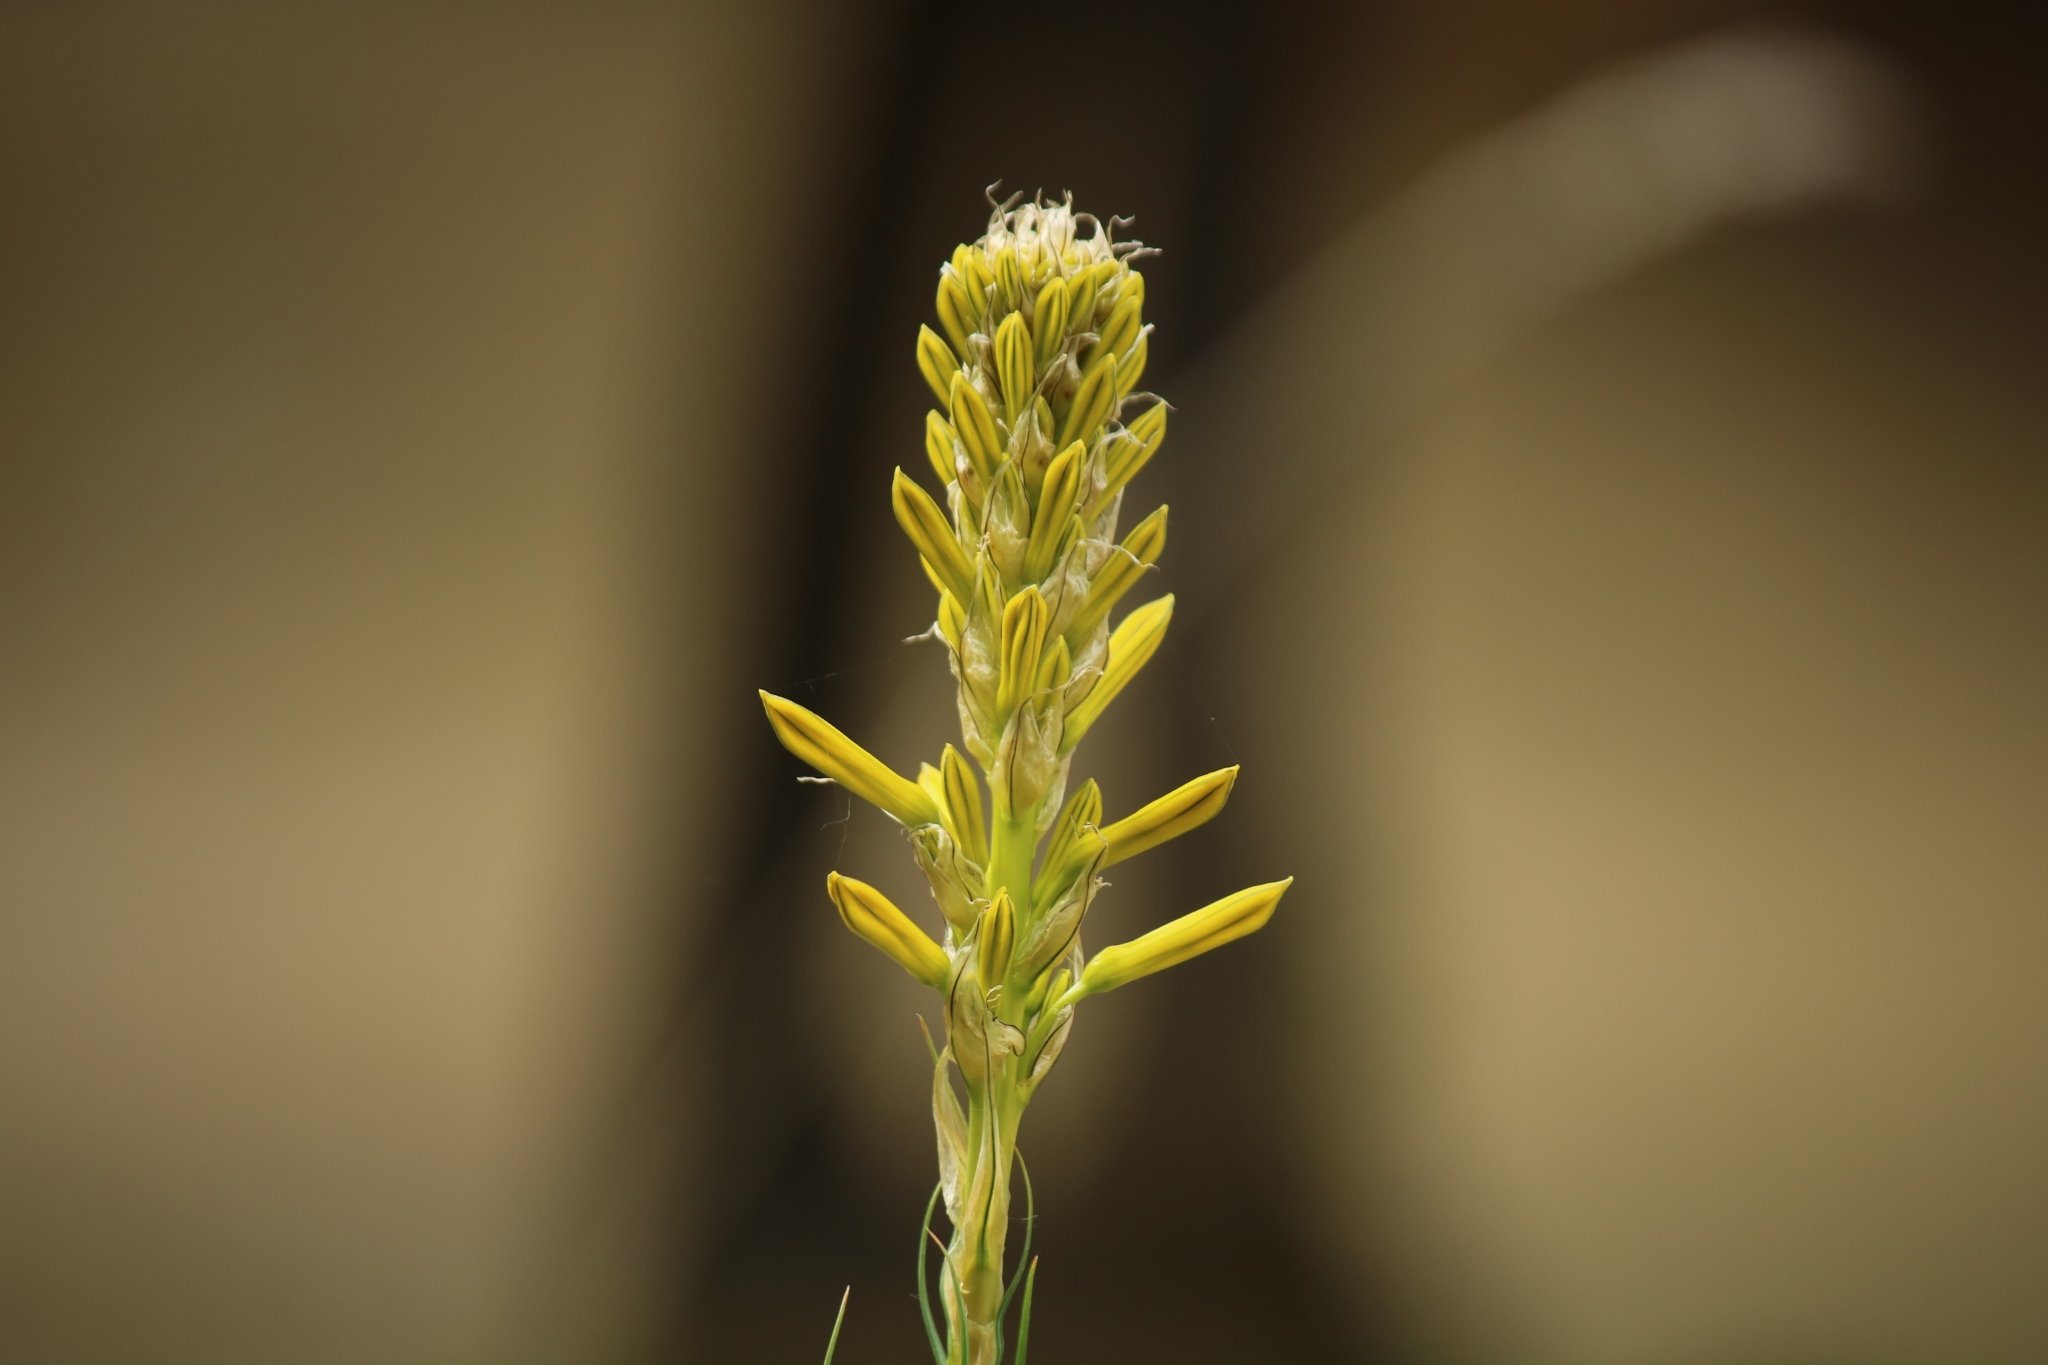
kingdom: Plantae
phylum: Tracheophyta
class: Liliopsida
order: Asparagales
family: Asphodelaceae
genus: Asphodeline
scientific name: Asphodeline lutea
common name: Yellow asphodel
